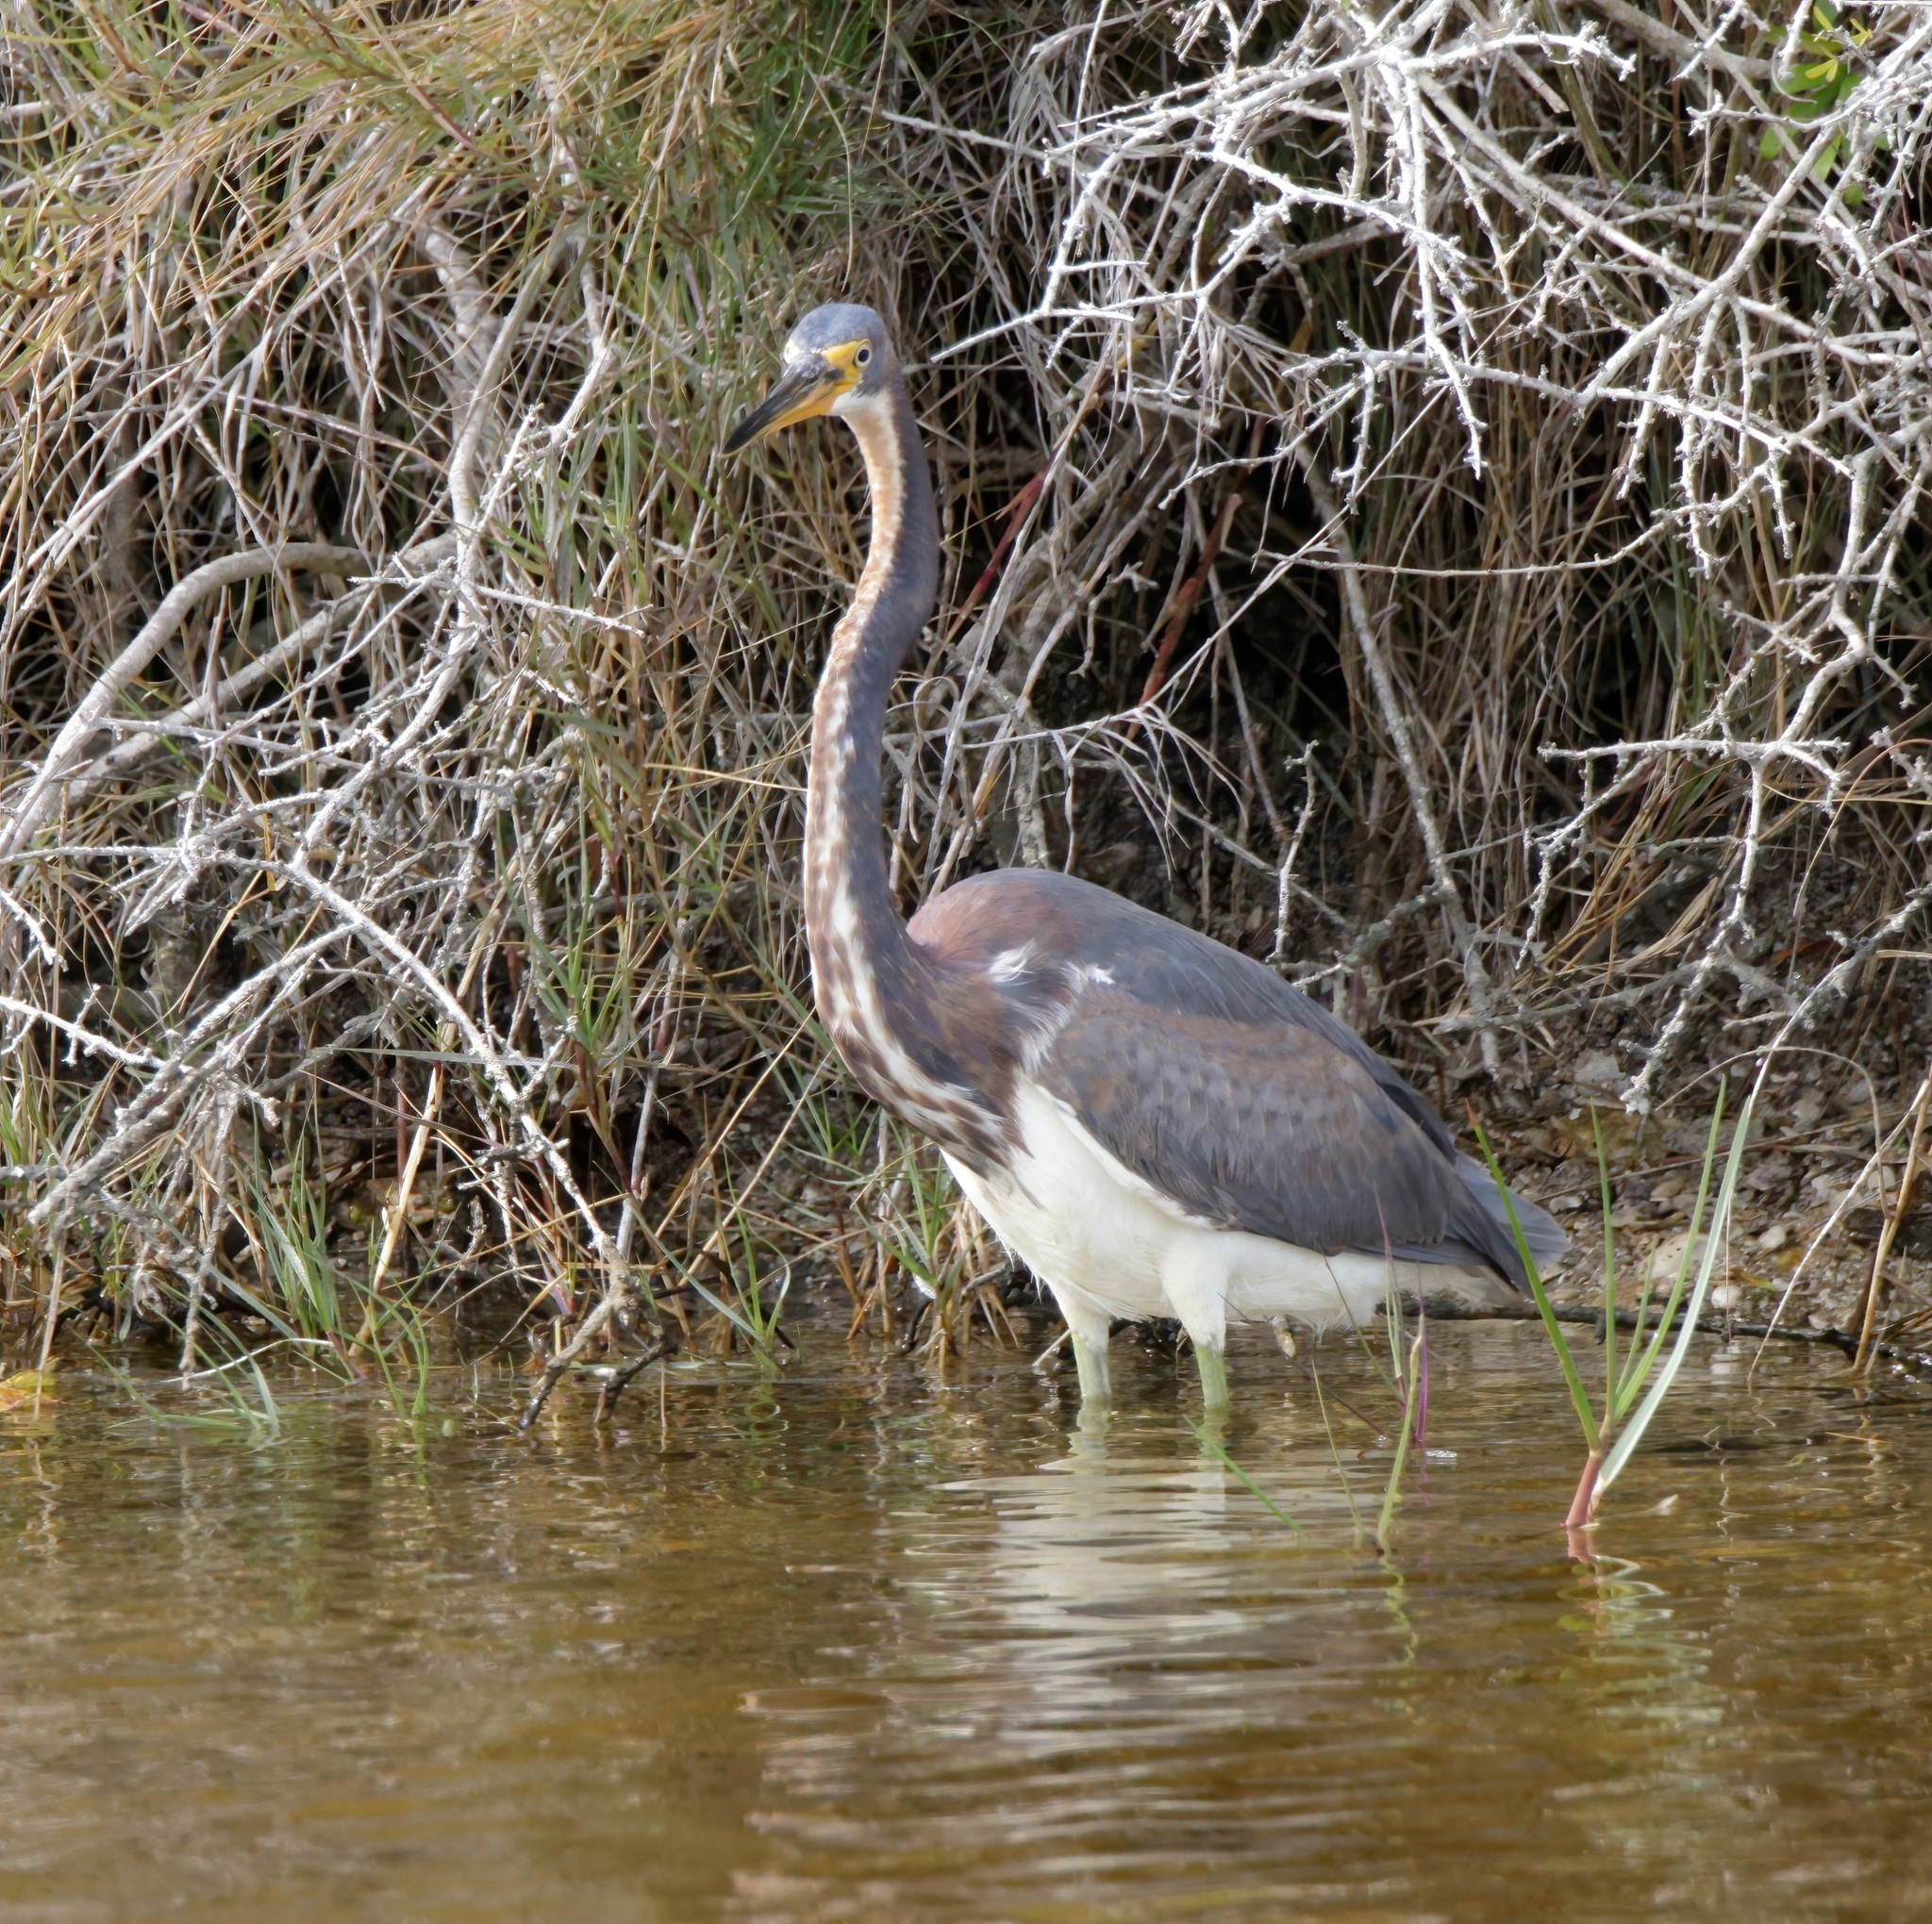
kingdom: Animalia
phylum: Chordata
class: Aves
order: Pelecaniformes
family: Ardeidae
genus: Egretta
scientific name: Egretta tricolor
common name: Tricolored heron
